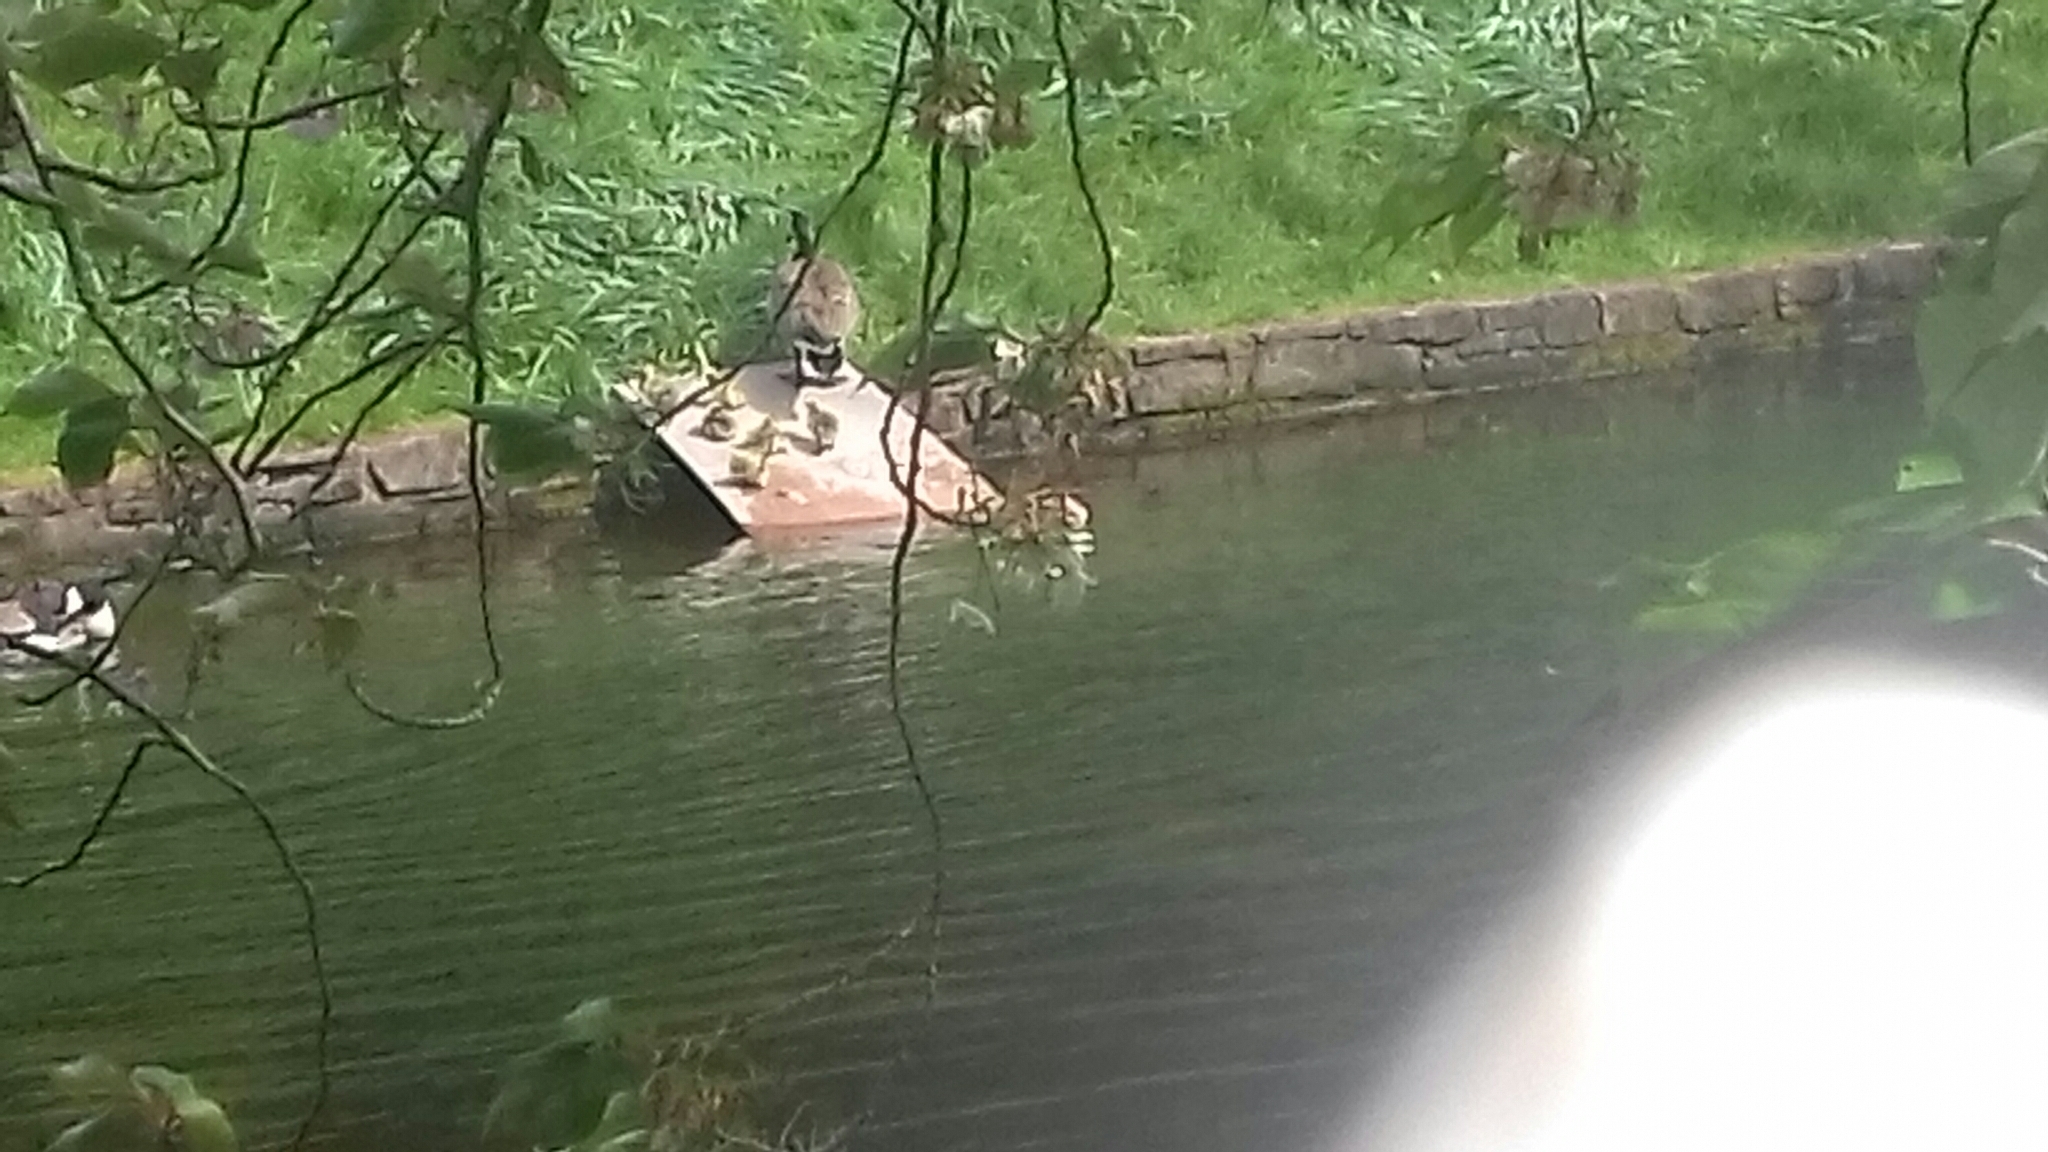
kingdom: Animalia
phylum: Chordata
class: Aves
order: Anseriformes
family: Anatidae
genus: Branta
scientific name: Branta canadensis
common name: Canada goose
